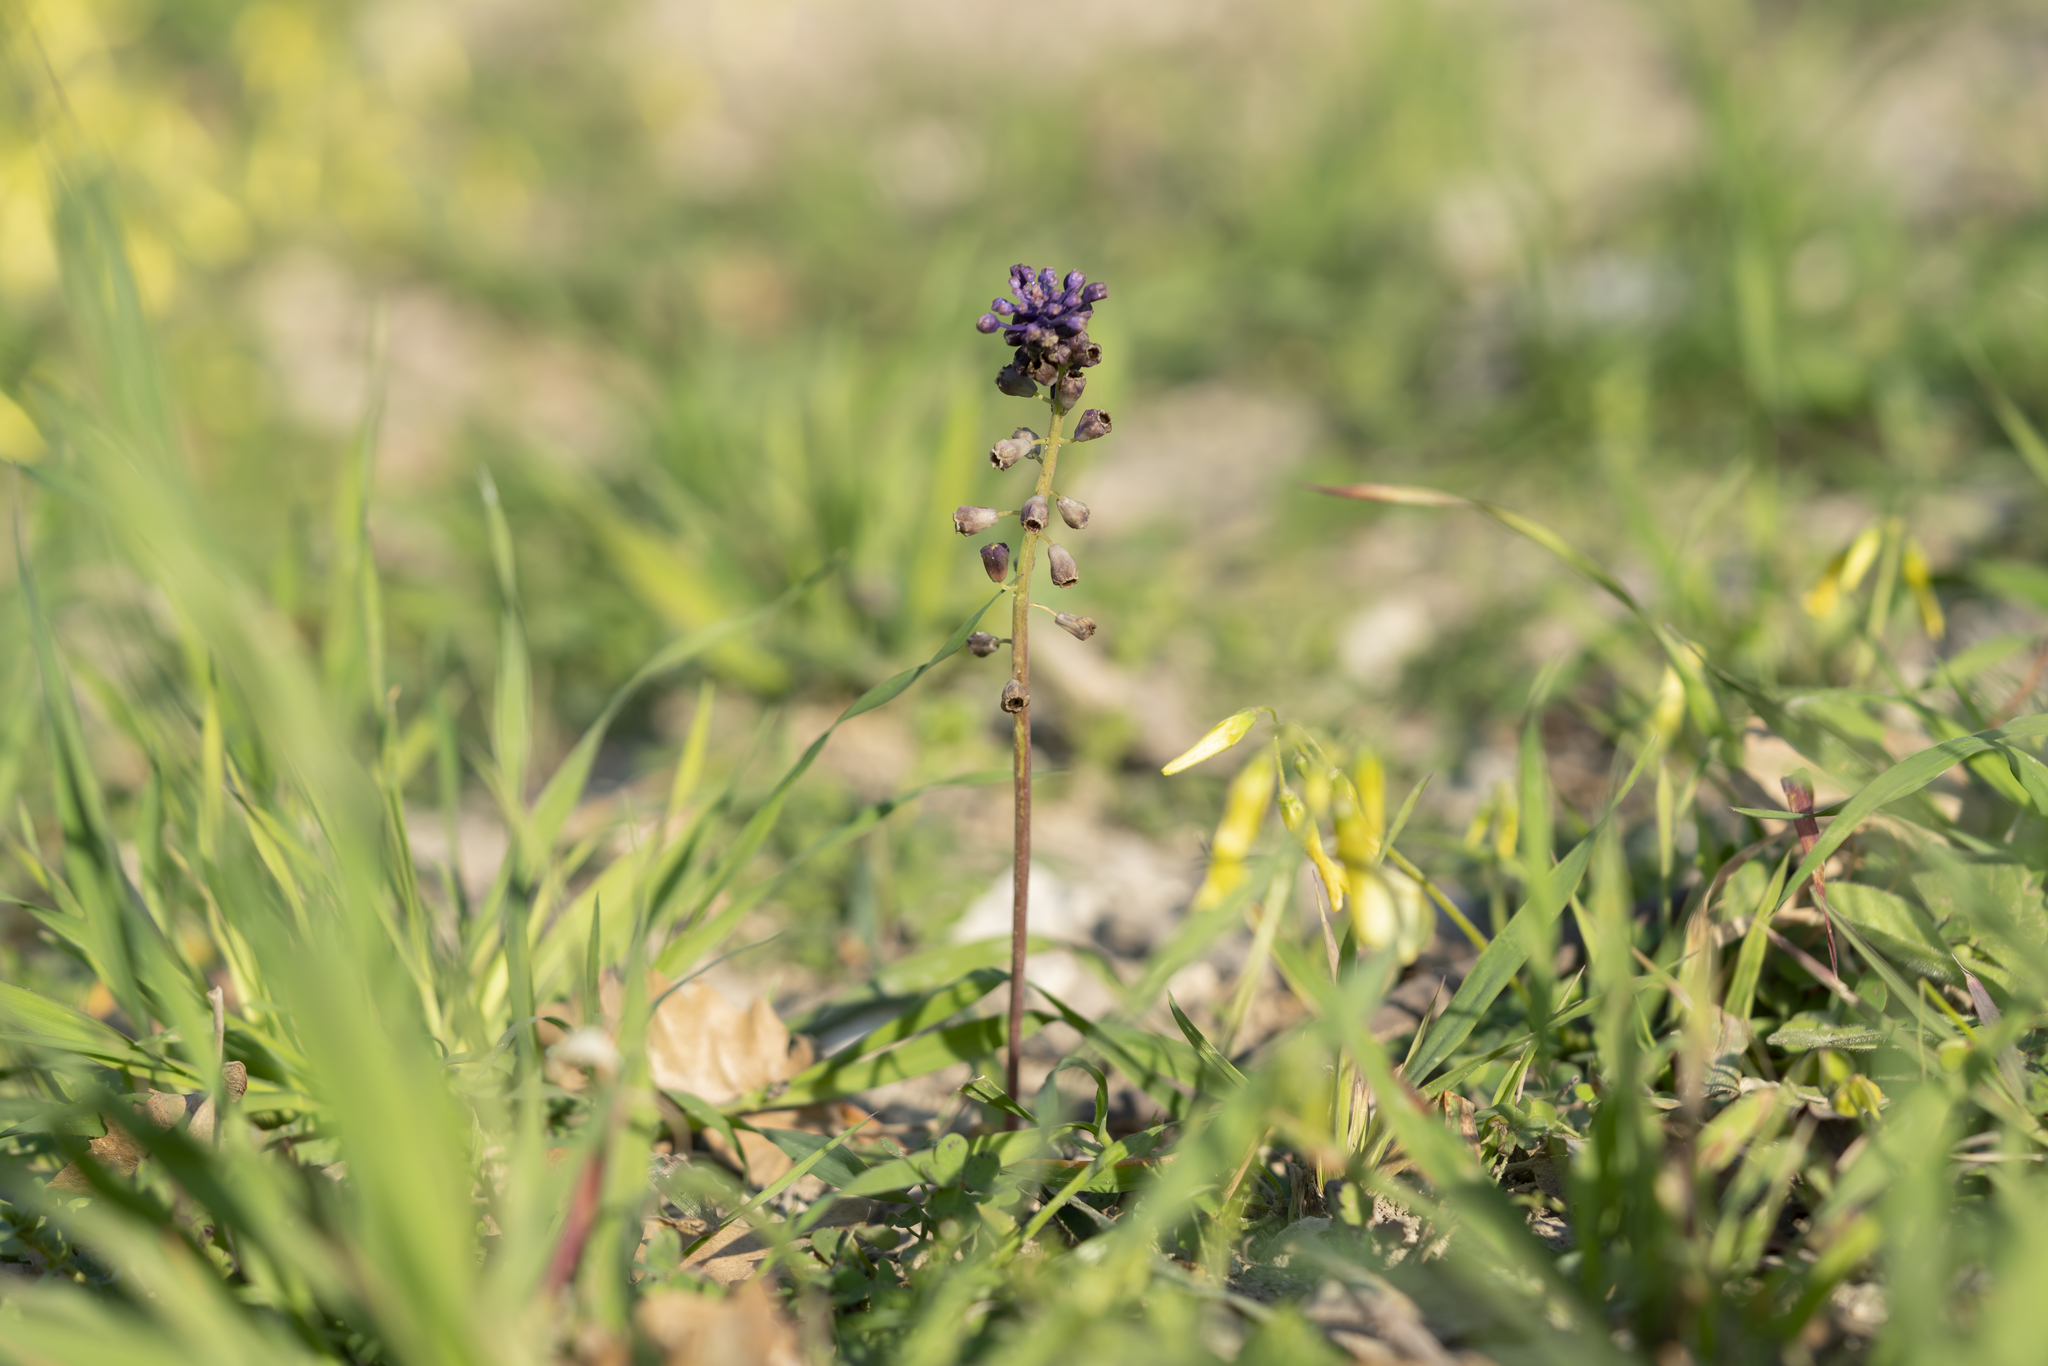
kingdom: Plantae
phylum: Tracheophyta
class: Liliopsida
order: Asparagales
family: Asparagaceae
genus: Muscari
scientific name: Muscari comosum
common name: Tassel hyacinth
